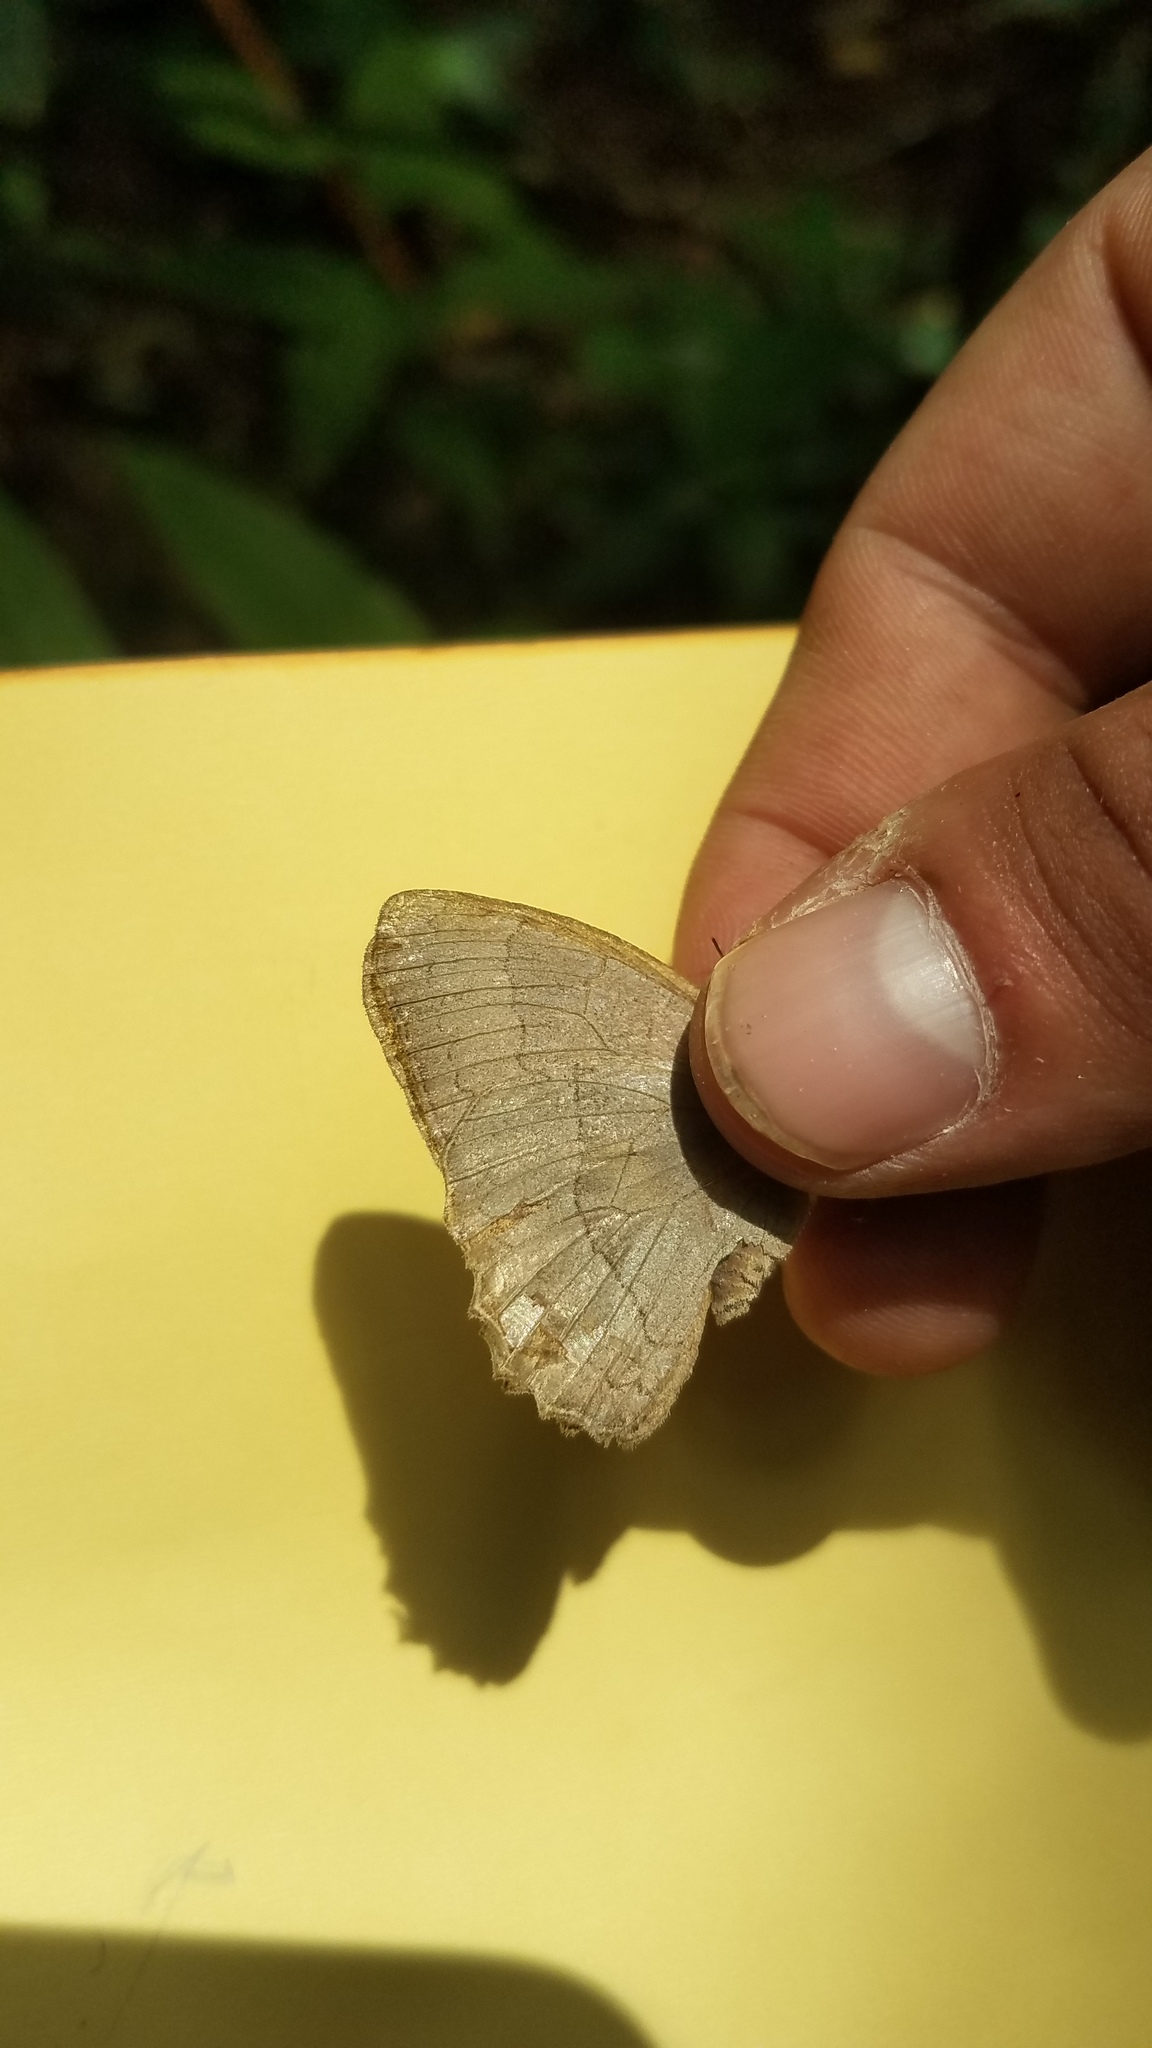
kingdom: Animalia
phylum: Arthropoda
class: Insecta
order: Lepidoptera
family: Nymphalidae
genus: Taygetina
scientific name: Taygetina kerea
